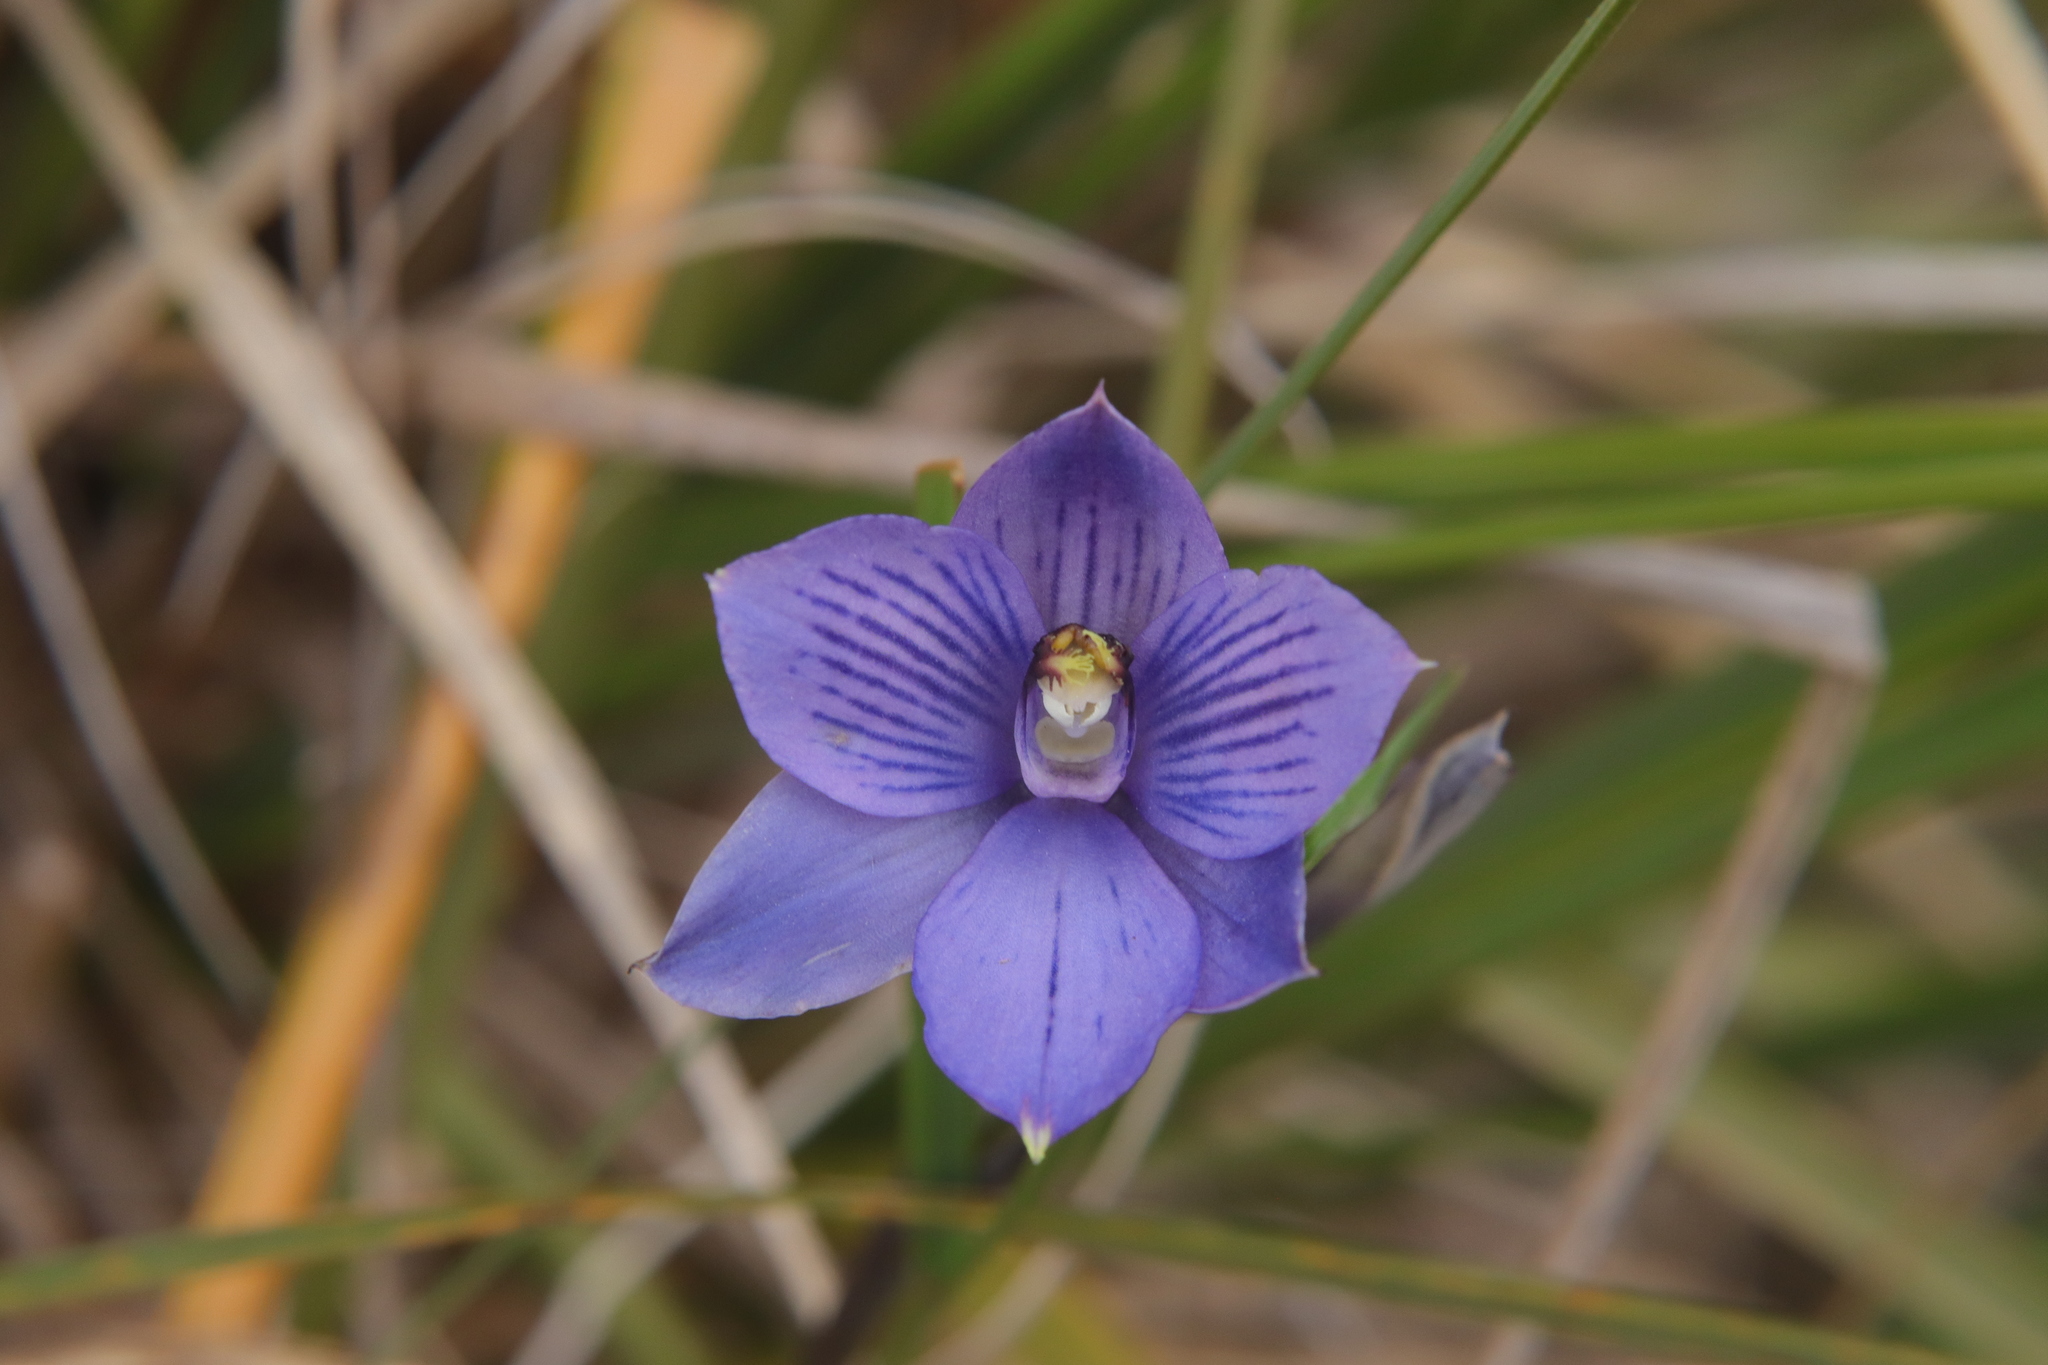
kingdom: Plantae
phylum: Tracheophyta
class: Liliopsida
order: Asparagales
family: Orchidaceae
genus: Thelymitra
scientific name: Thelymitra pulchella
